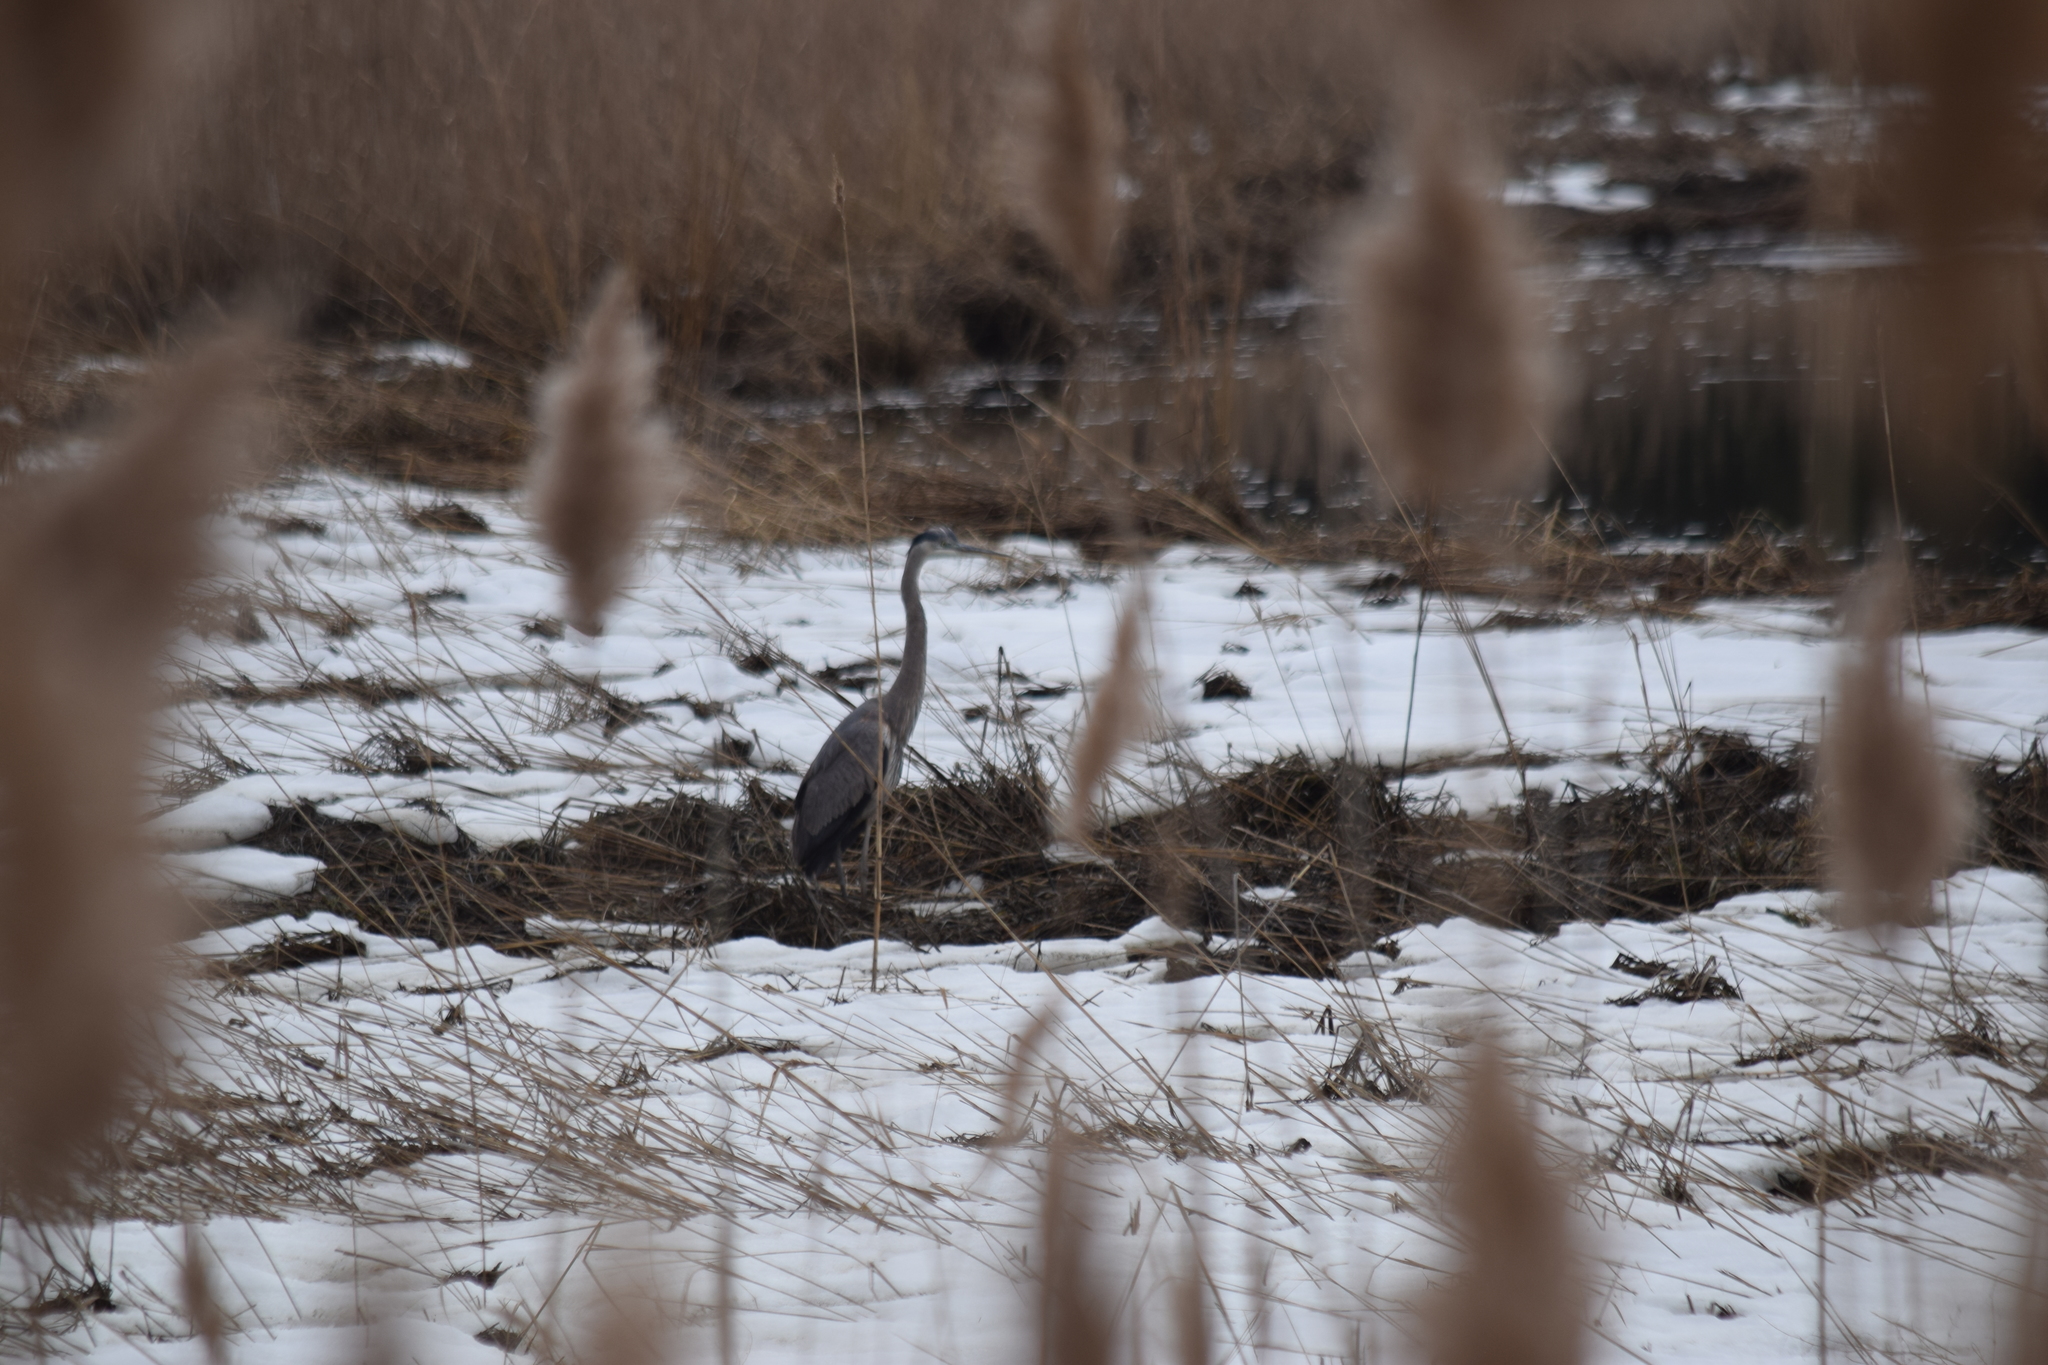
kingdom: Animalia
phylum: Chordata
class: Aves
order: Pelecaniformes
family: Ardeidae
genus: Ardea
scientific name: Ardea herodias
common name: Great blue heron
